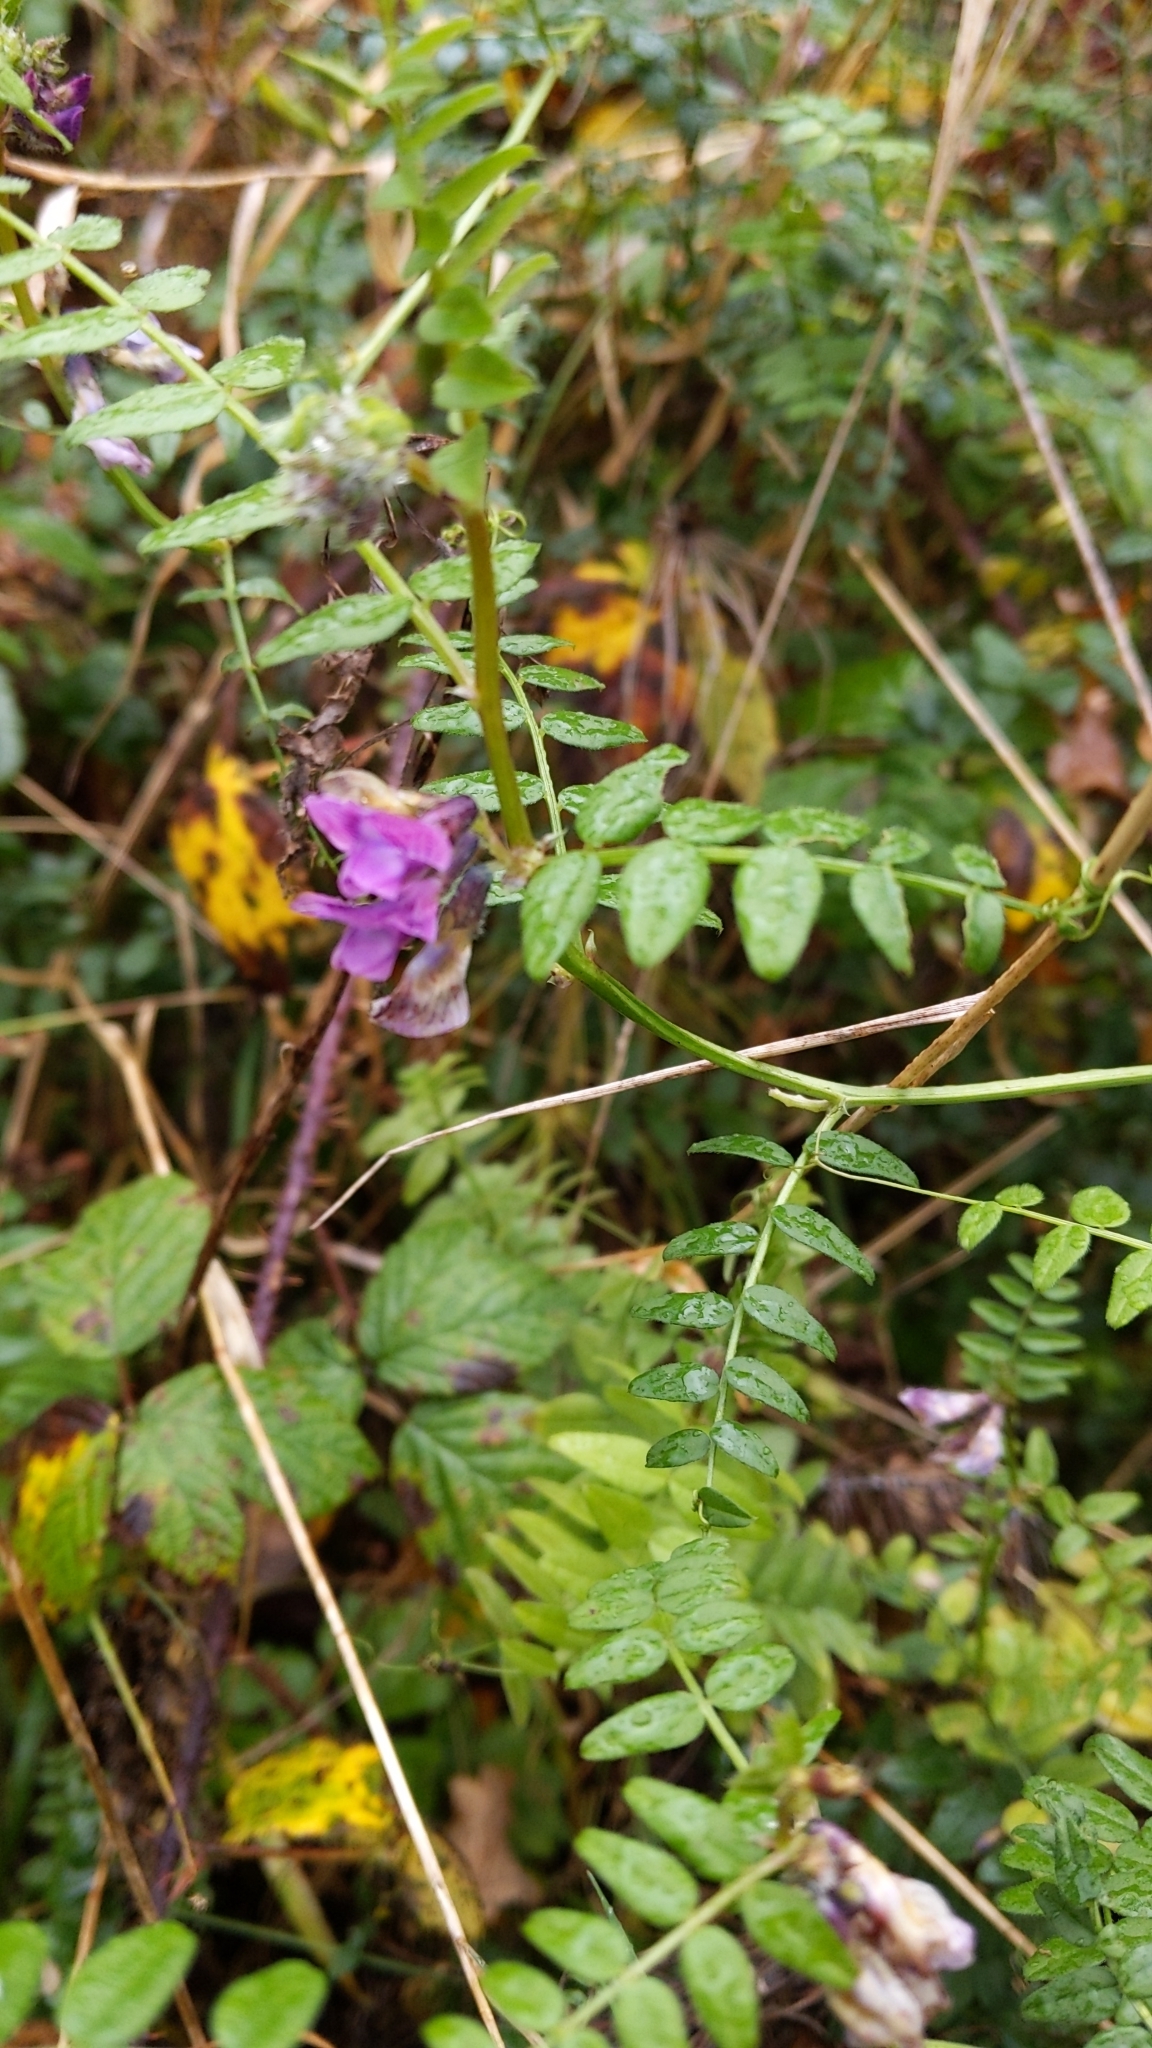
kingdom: Plantae
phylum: Tracheophyta
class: Magnoliopsida
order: Fabales
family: Fabaceae
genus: Vicia
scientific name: Vicia sepium
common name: Bush vetch
